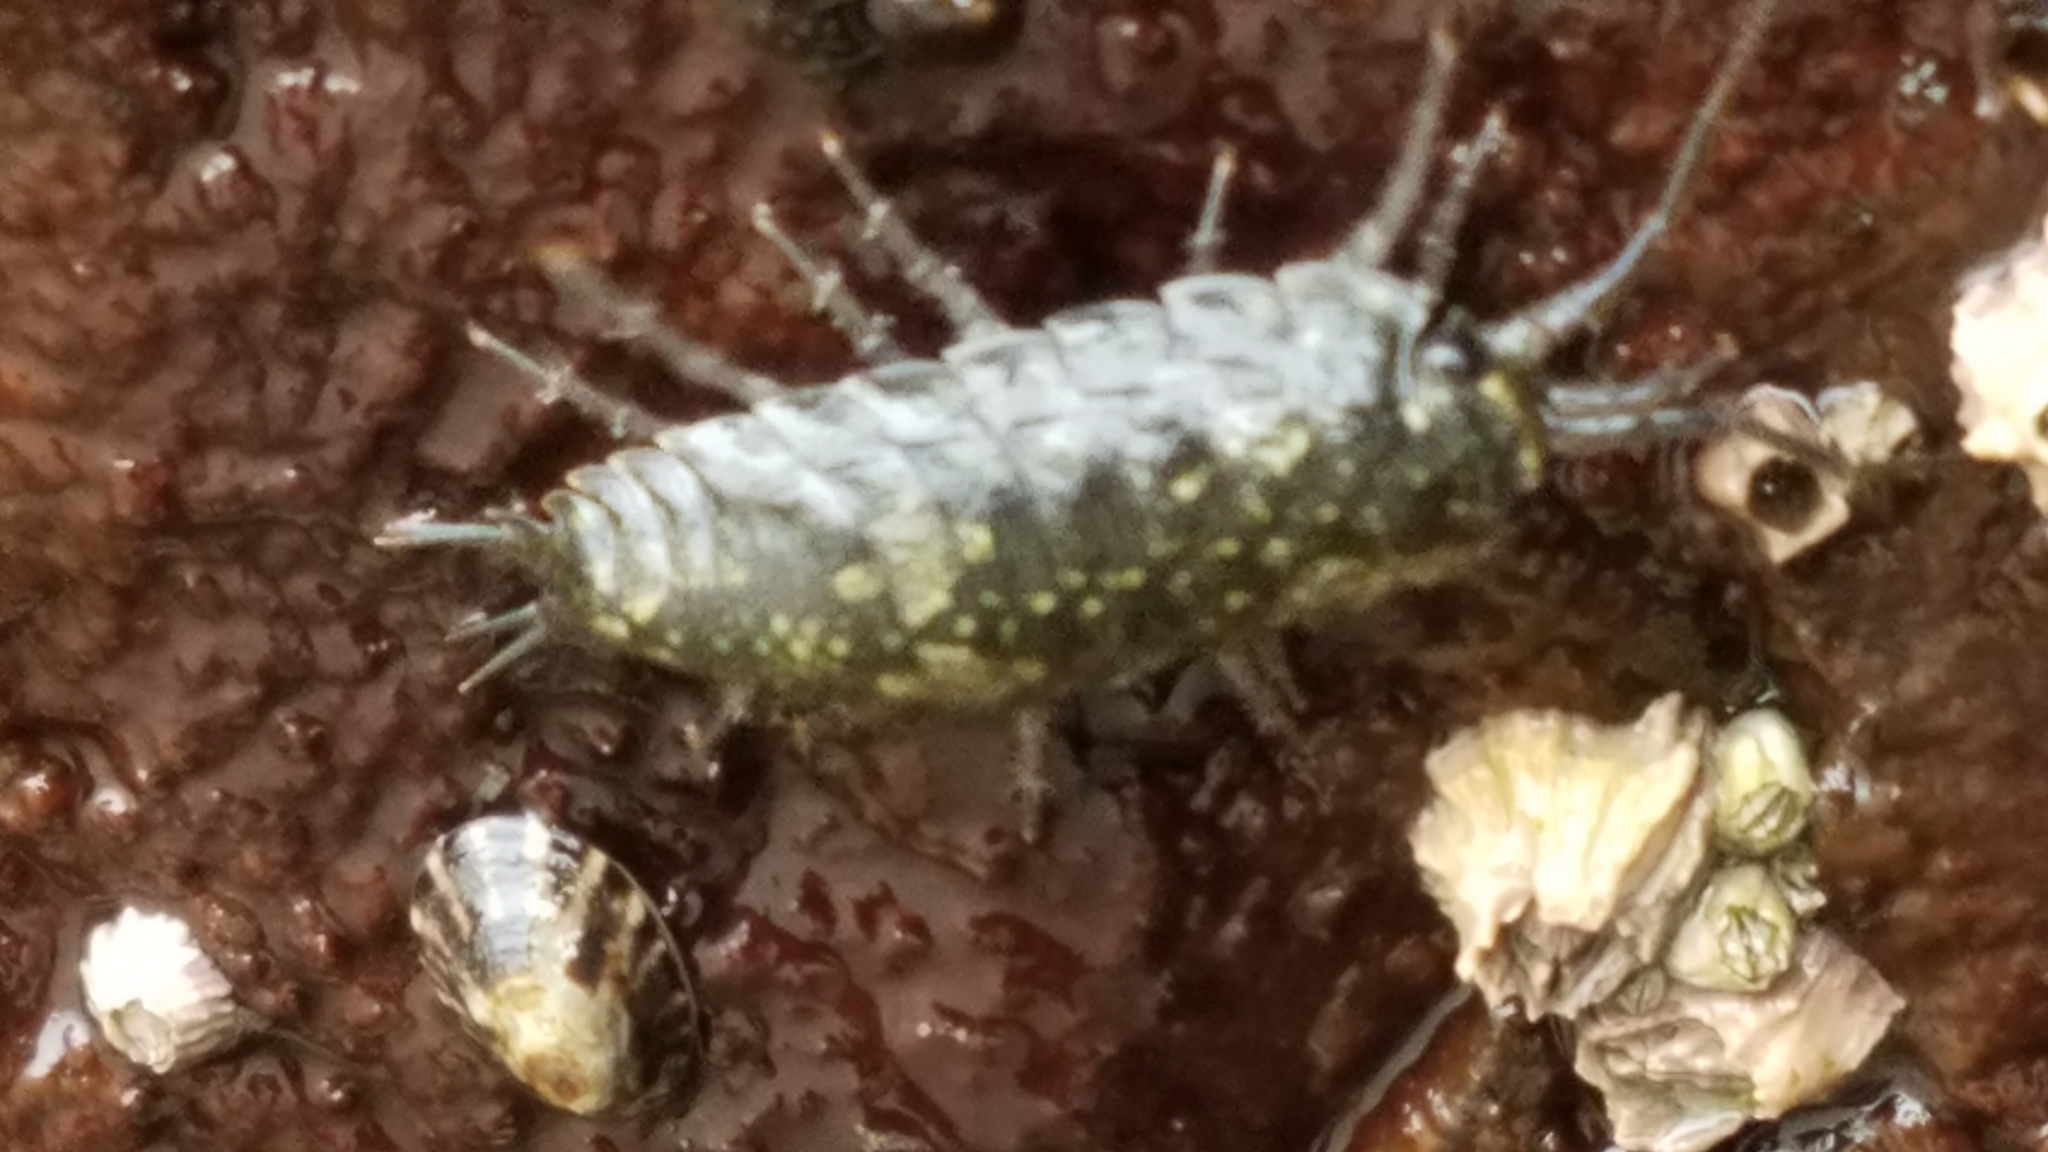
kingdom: Animalia
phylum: Arthropoda
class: Malacostraca
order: Isopoda
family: Ligiidae
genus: Ligia
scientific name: Ligia pallasii
